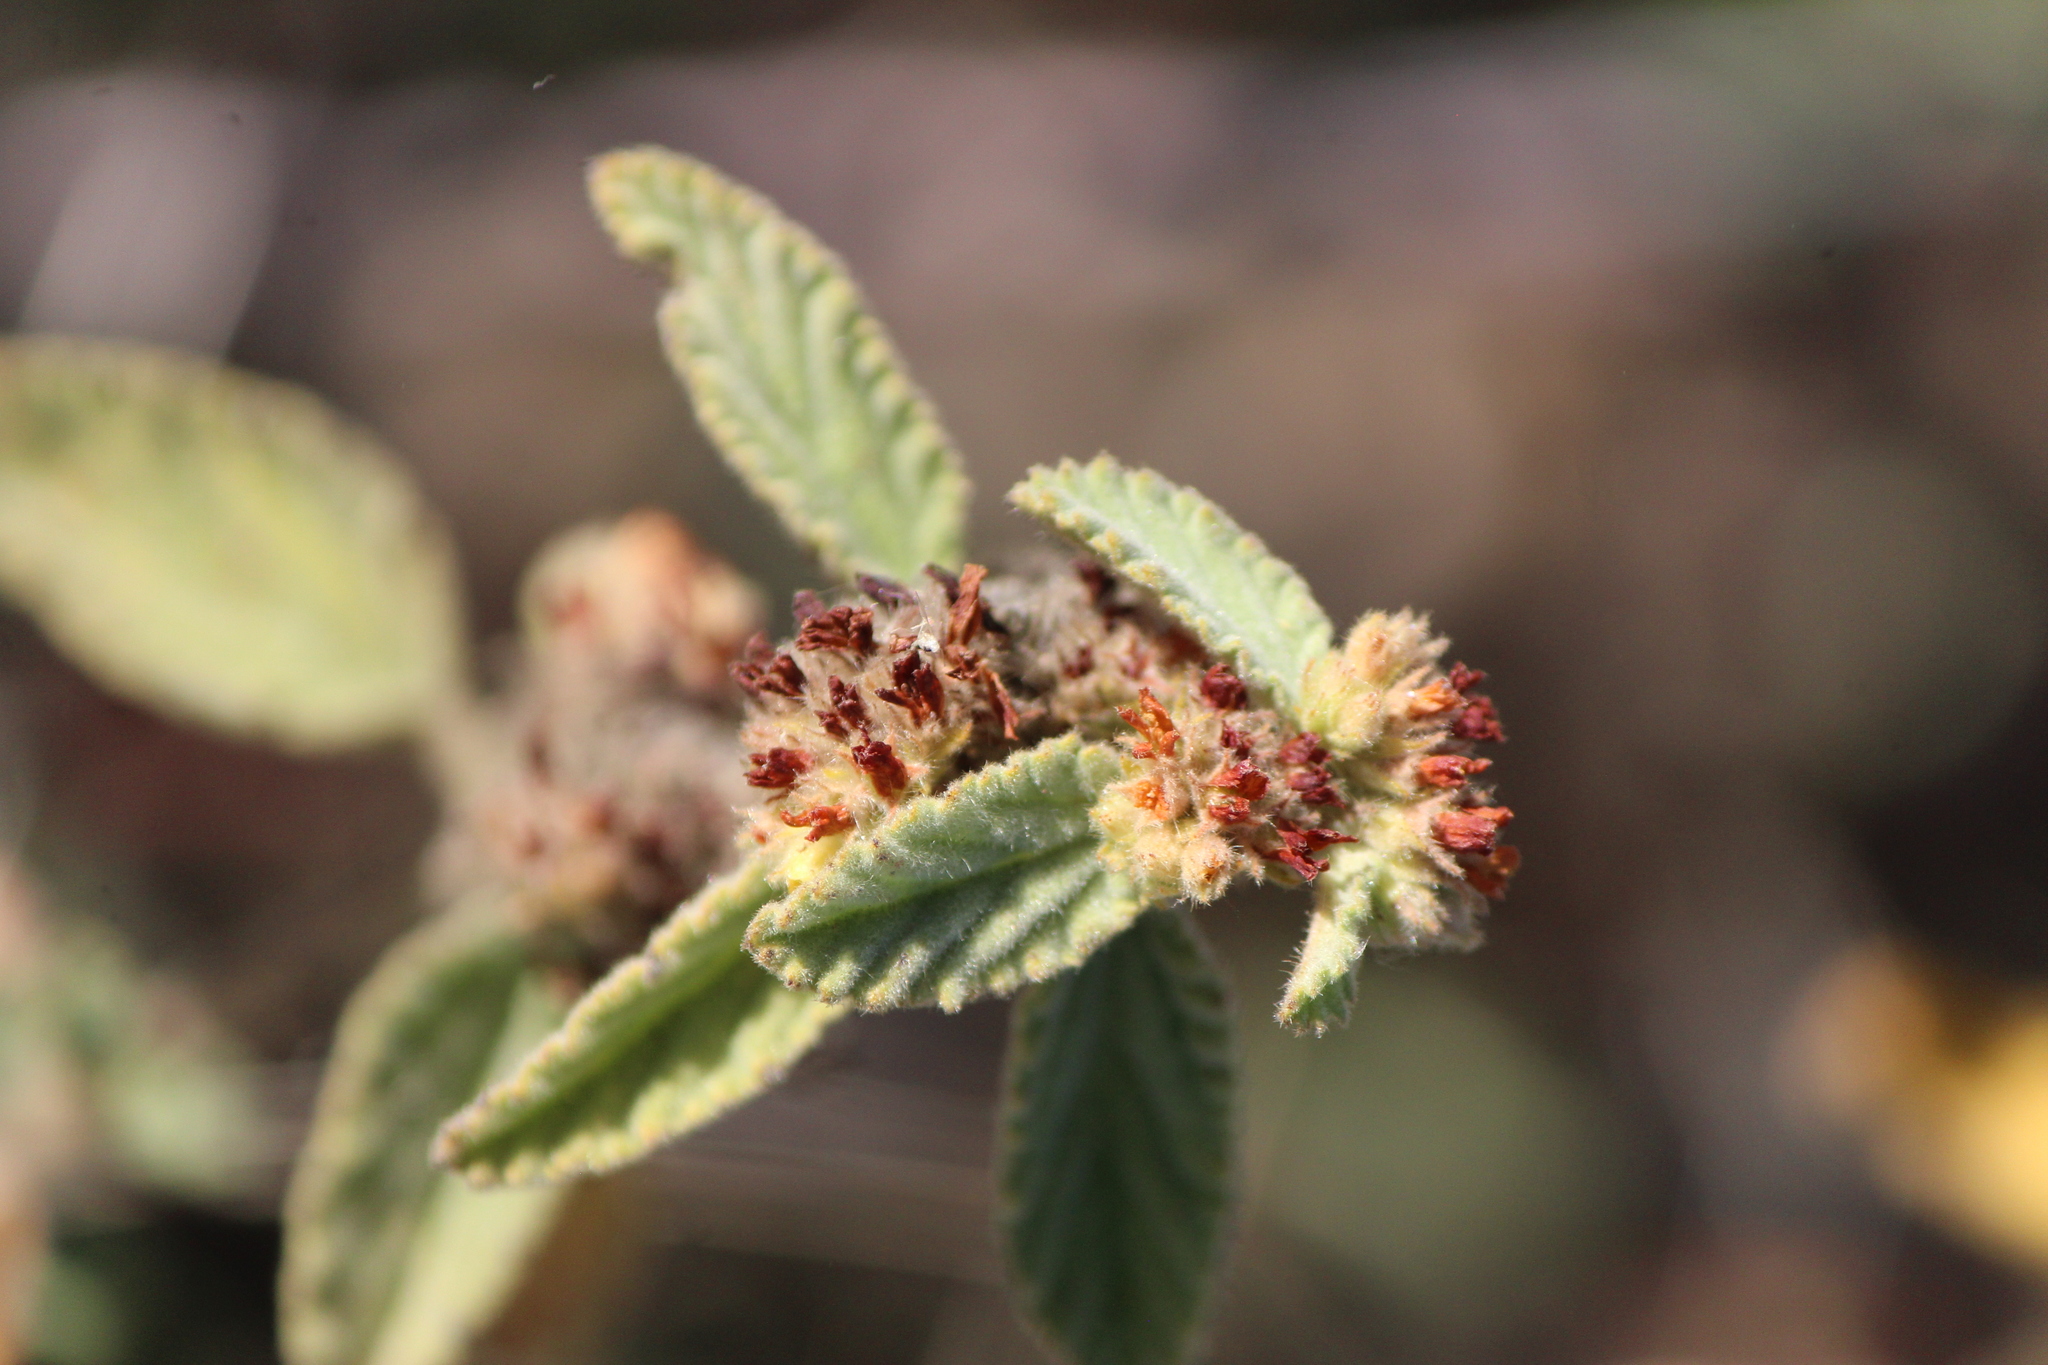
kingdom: Plantae
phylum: Tracheophyta
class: Magnoliopsida
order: Malvales
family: Malvaceae
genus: Waltheria
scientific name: Waltheria indica
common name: Leather-coat
